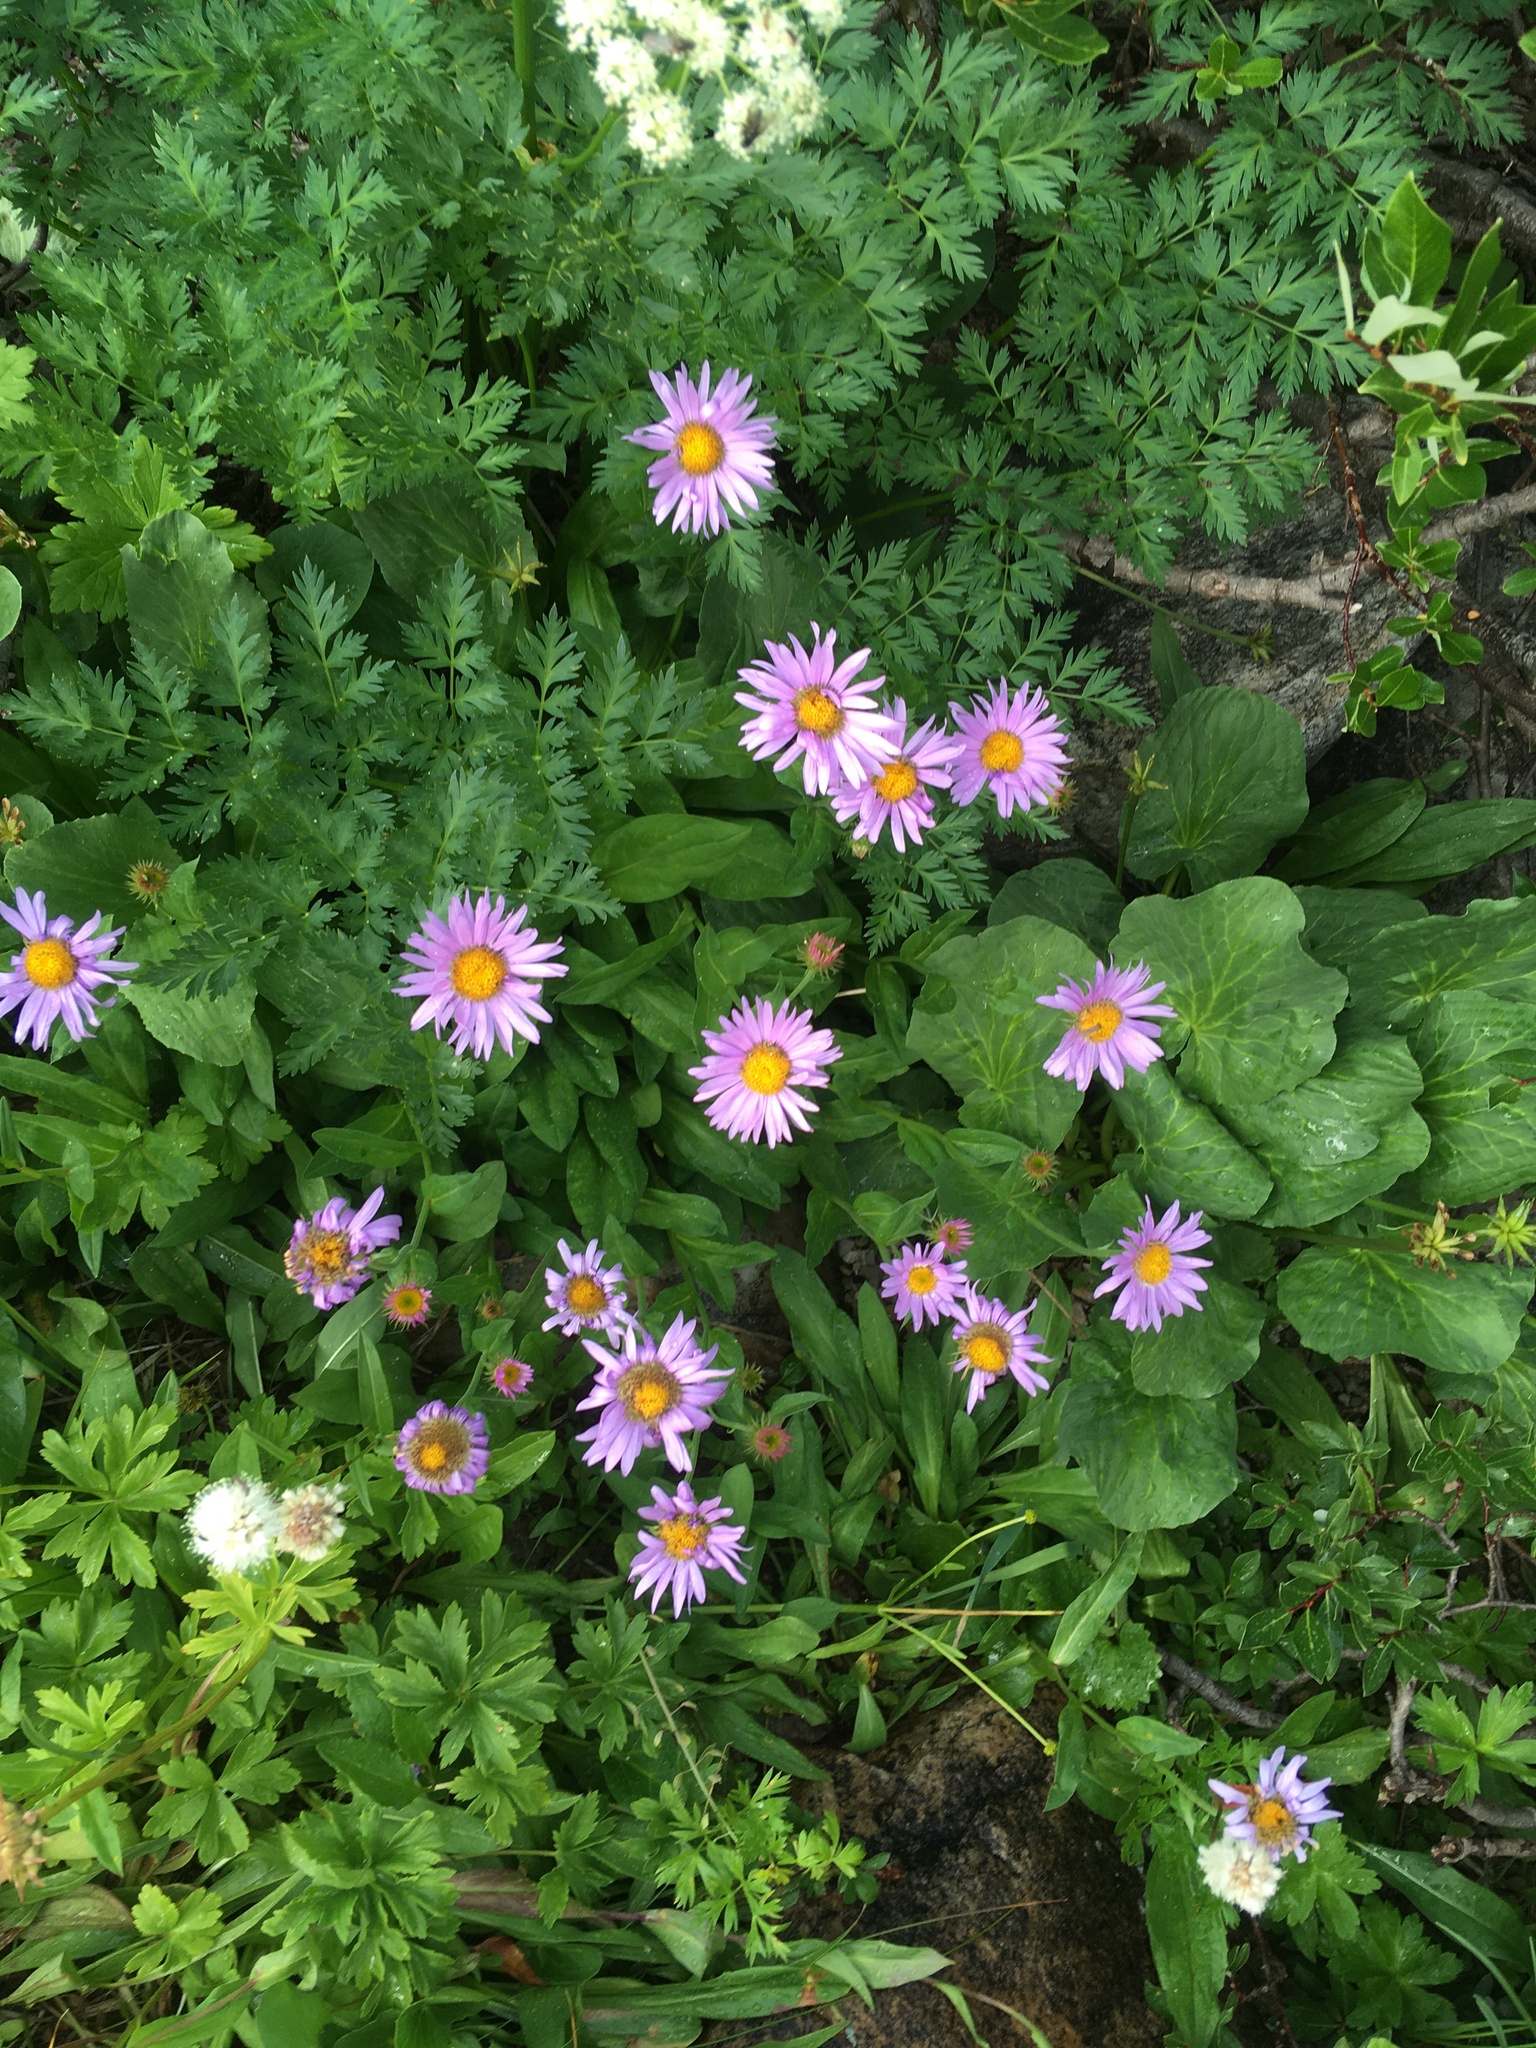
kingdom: Plantae
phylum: Tracheophyta
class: Magnoliopsida
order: Asterales
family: Asteraceae
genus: Erigeron
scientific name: Erigeron glacialis
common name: Subalpine fleabane
